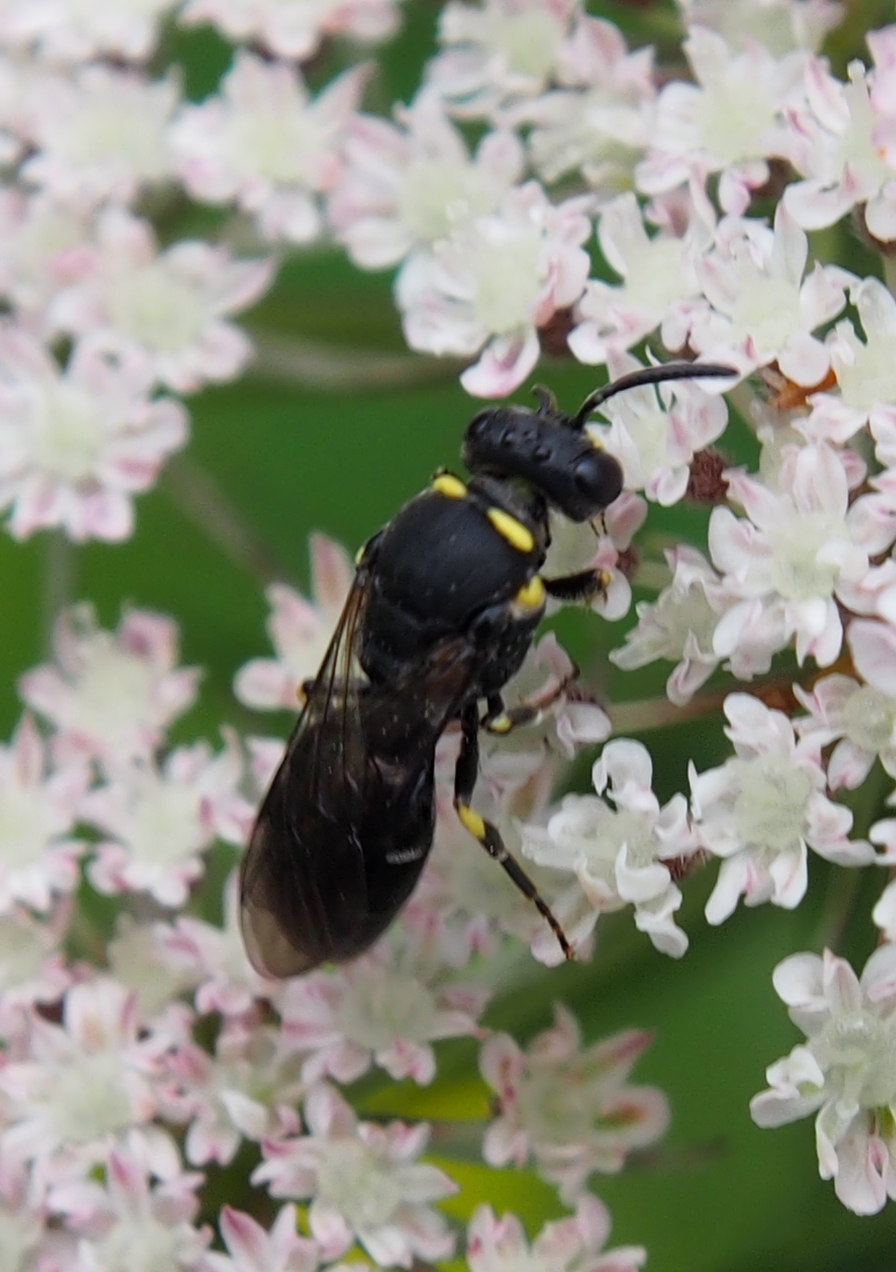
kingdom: Animalia
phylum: Arthropoda
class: Insecta
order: Hymenoptera
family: Colletidae
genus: Hylaeus
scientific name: Hylaeus modestus
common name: Yellow-faced bee
